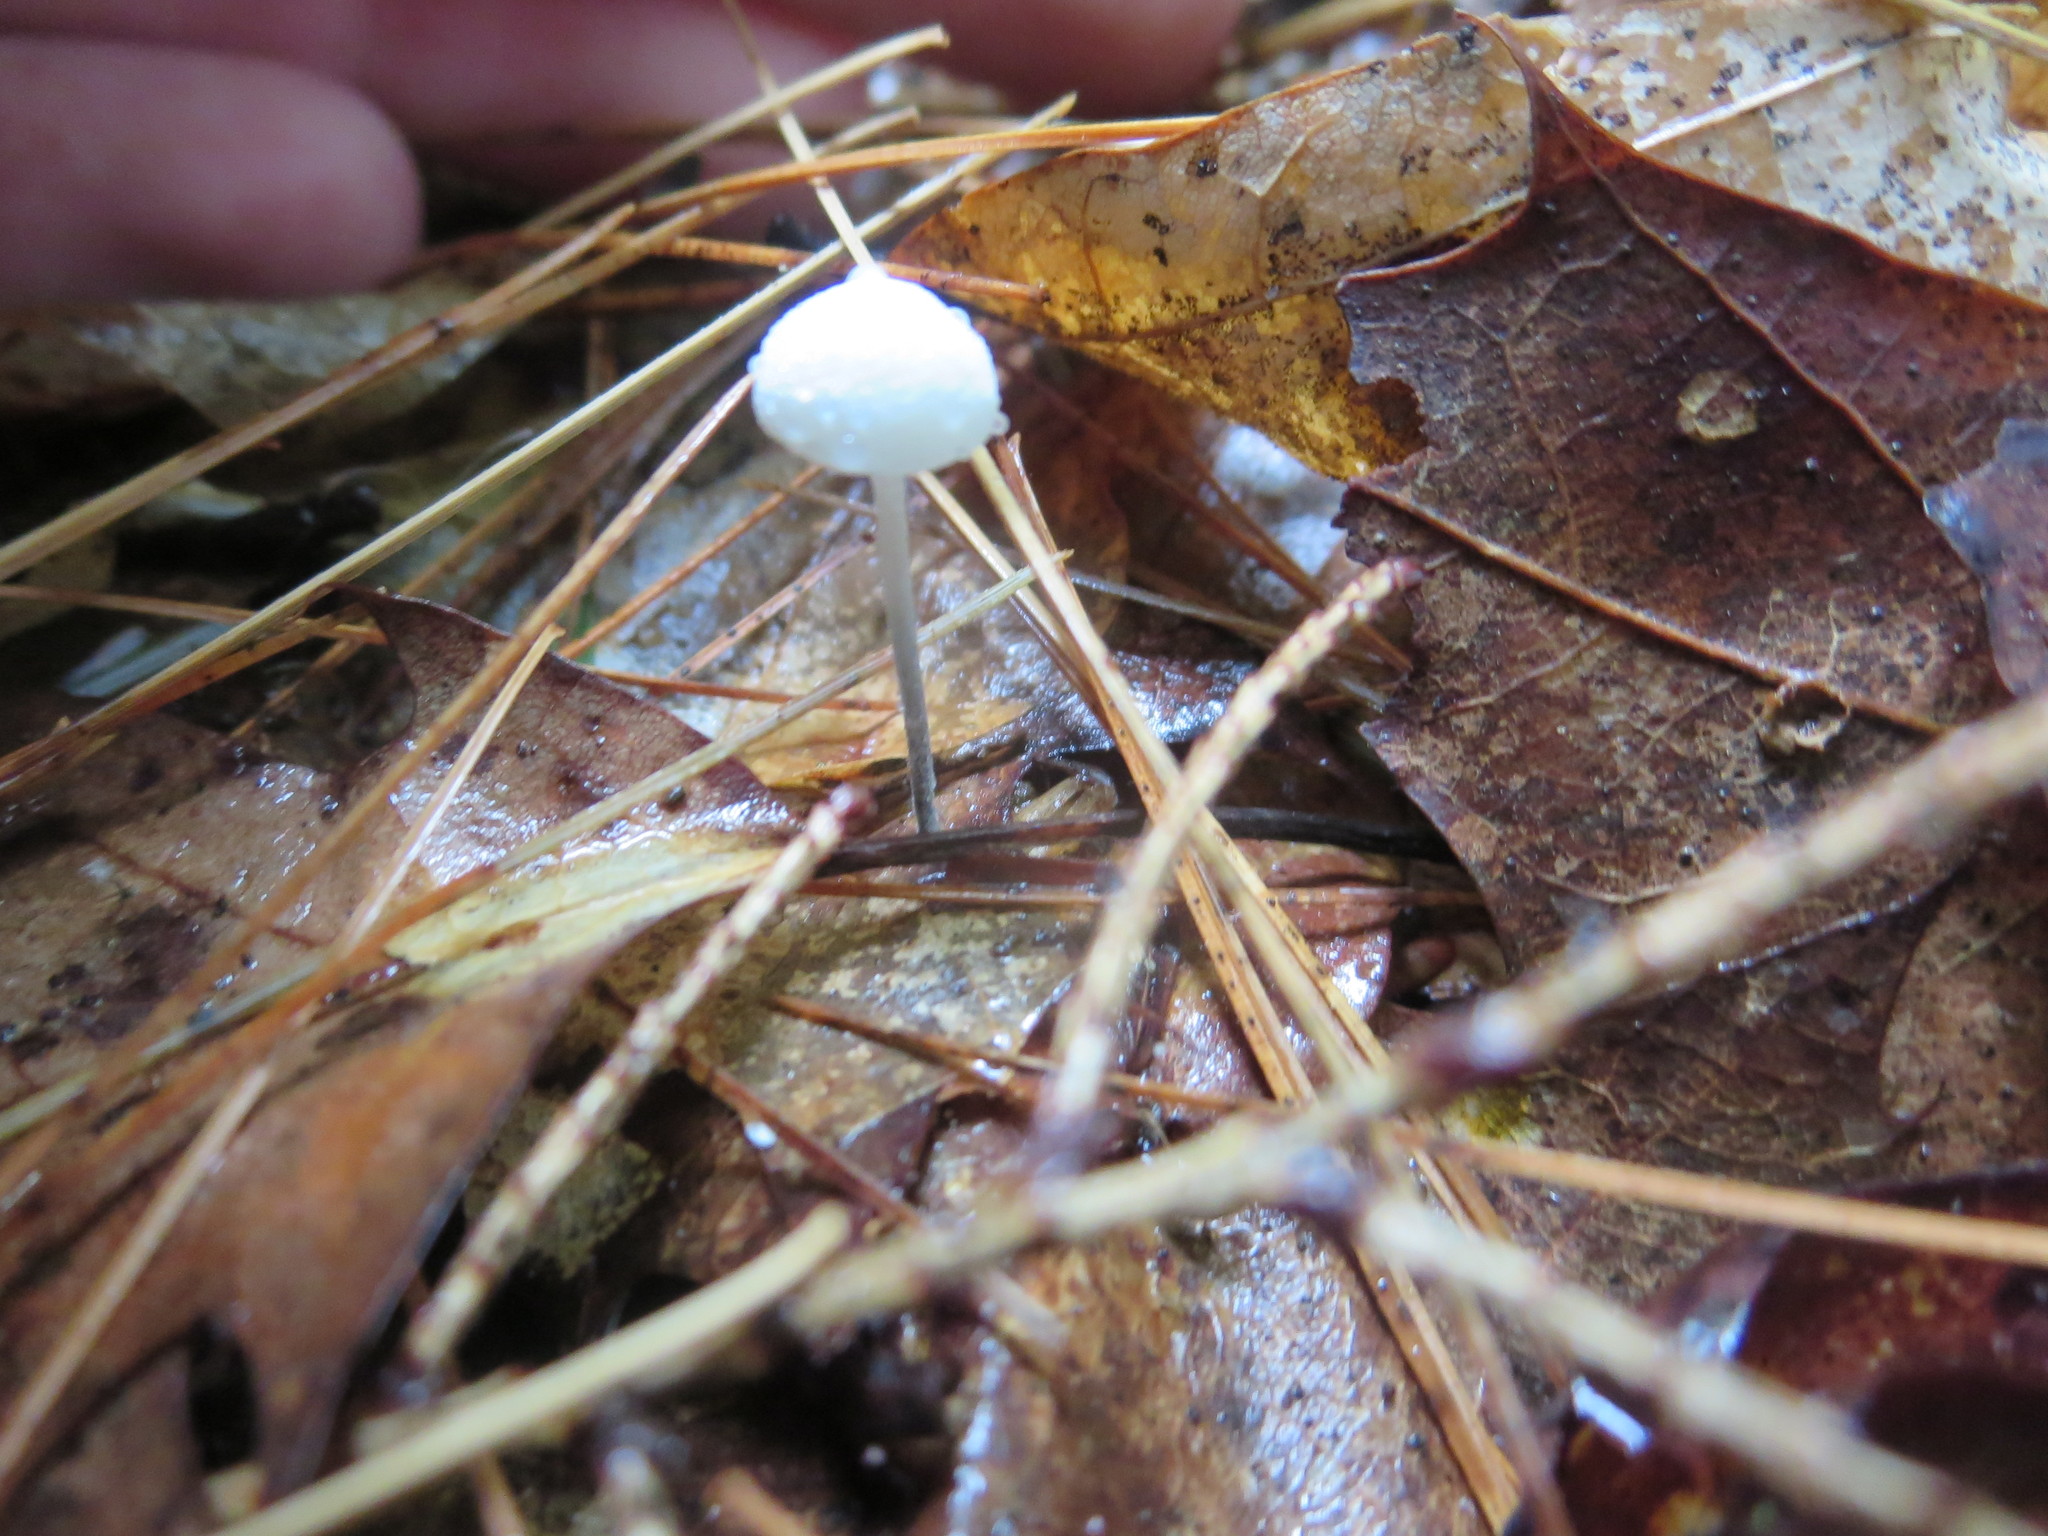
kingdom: Fungi
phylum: Basidiomycota
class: Agaricomycetes
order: Agaricales
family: Marasmiaceae
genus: Tetrapyrgos
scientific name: Tetrapyrgos nigripes
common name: Black-stalked marasmius
